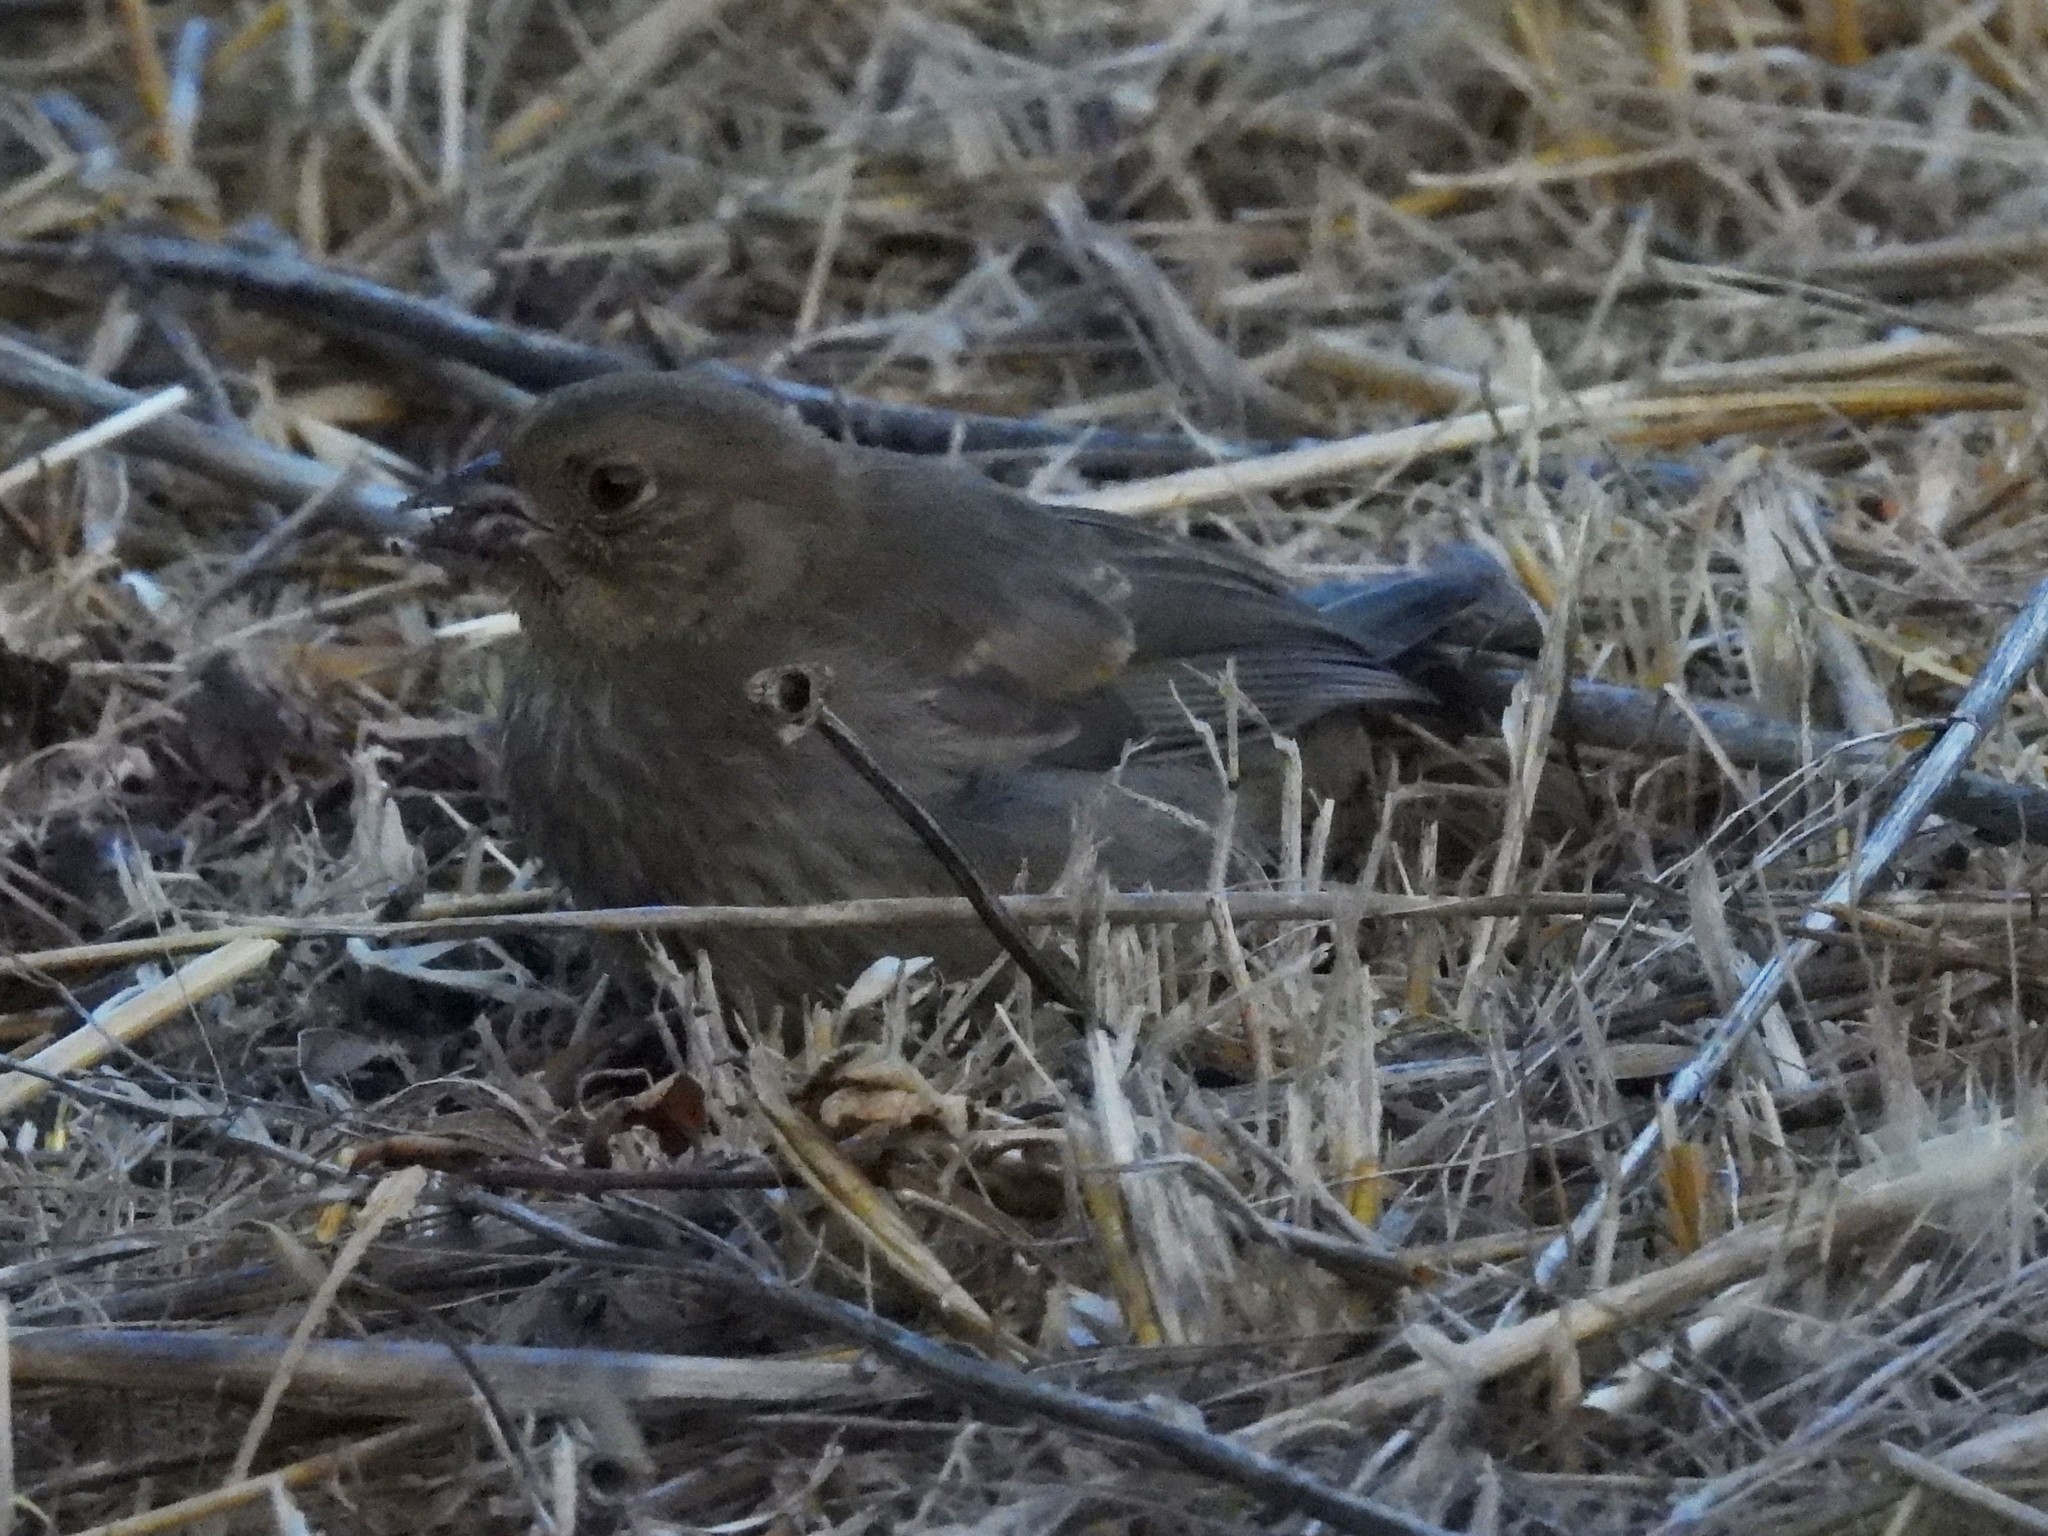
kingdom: Animalia
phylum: Chordata
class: Aves
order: Passeriformes
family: Passerellidae
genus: Melozone
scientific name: Melozone crissalis
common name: California towhee
